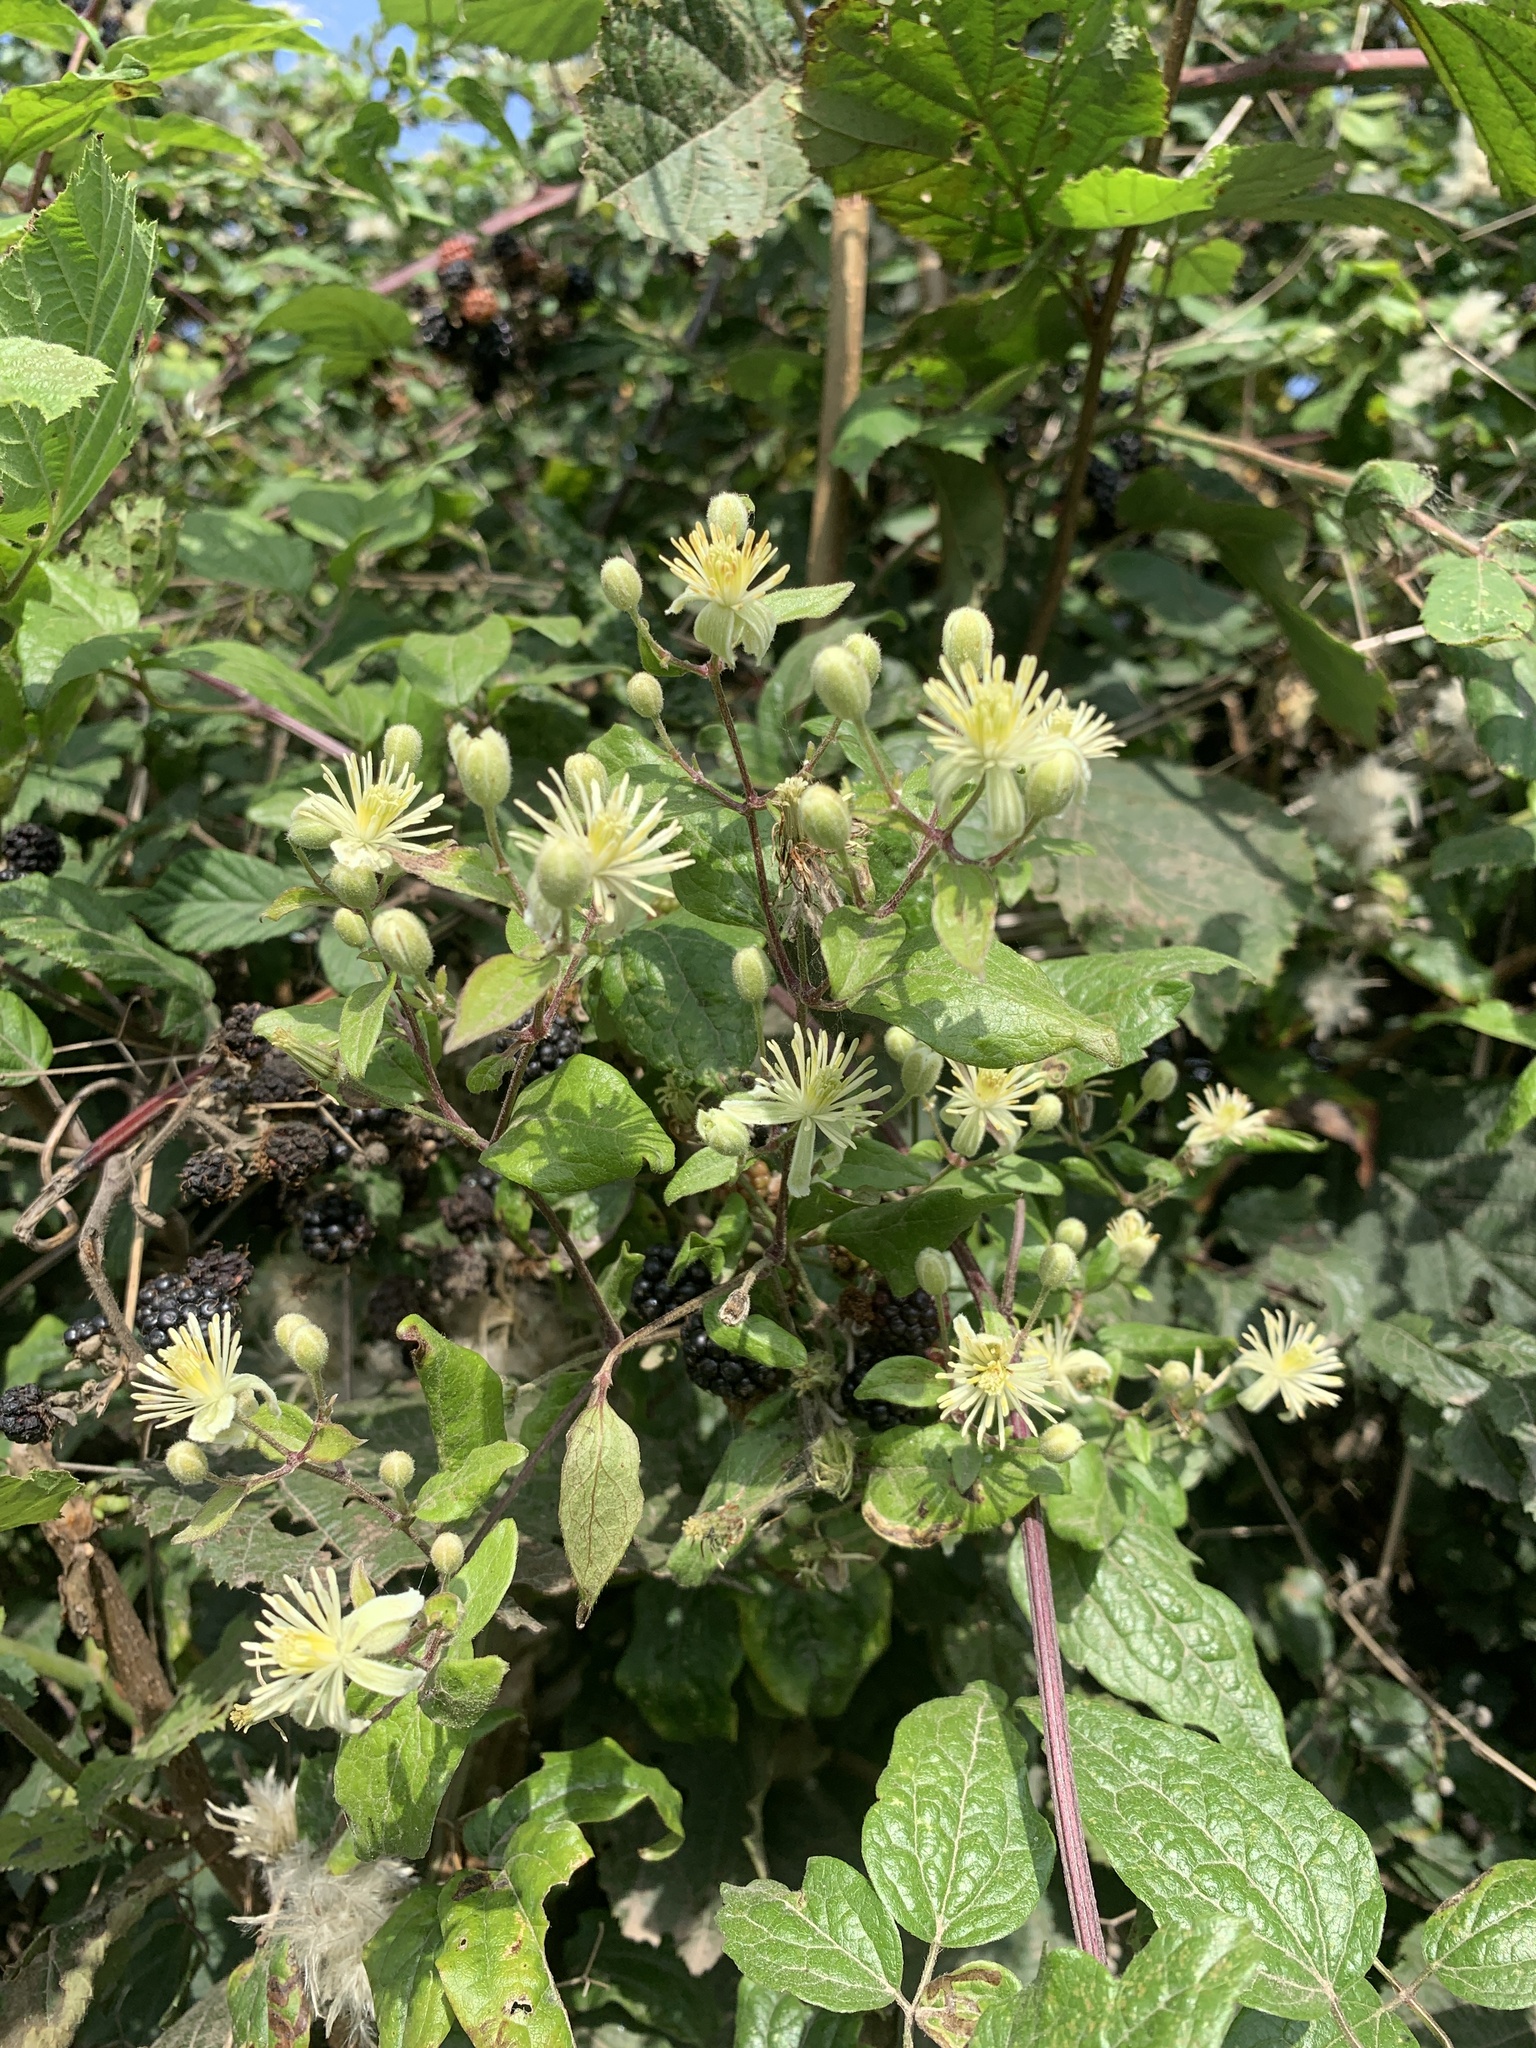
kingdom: Plantae
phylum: Tracheophyta
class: Magnoliopsida
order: Ranunculales
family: Ranunculaceae
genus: Clematis
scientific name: Clematis vitalba
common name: Evergreen clematis
